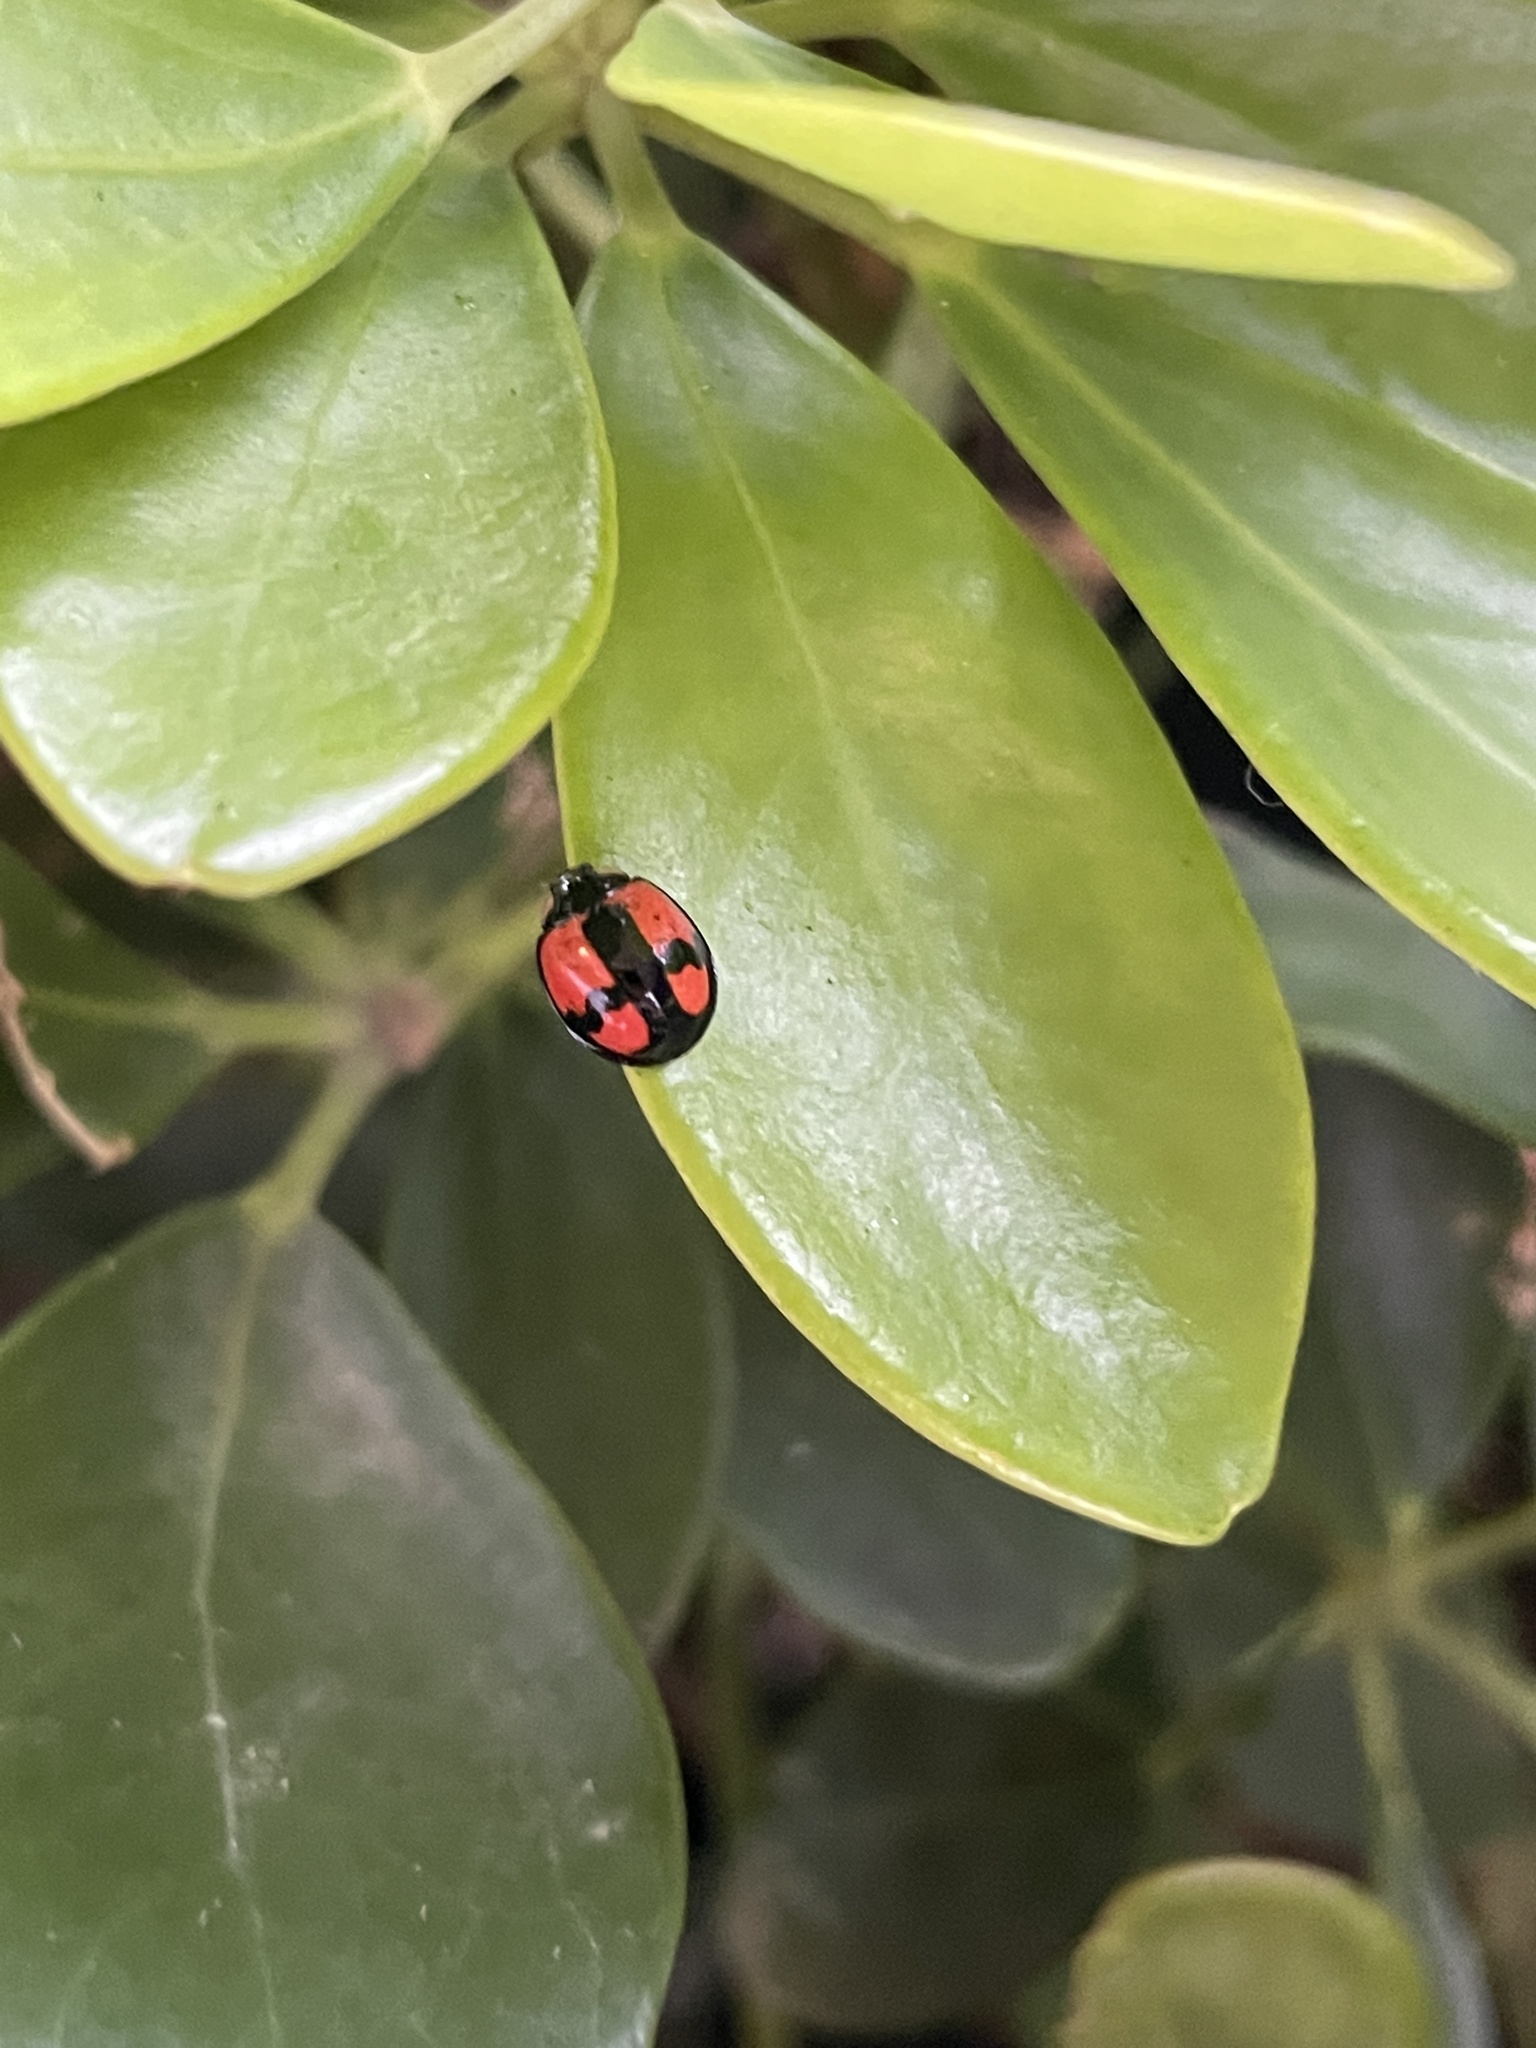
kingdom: Animalia
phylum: Arthropoda
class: Insecta
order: Coleoptera
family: Coccinellidae
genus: Cheilomenes
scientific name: Cheilomenes sexmaculata
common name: Ladybird beetle
